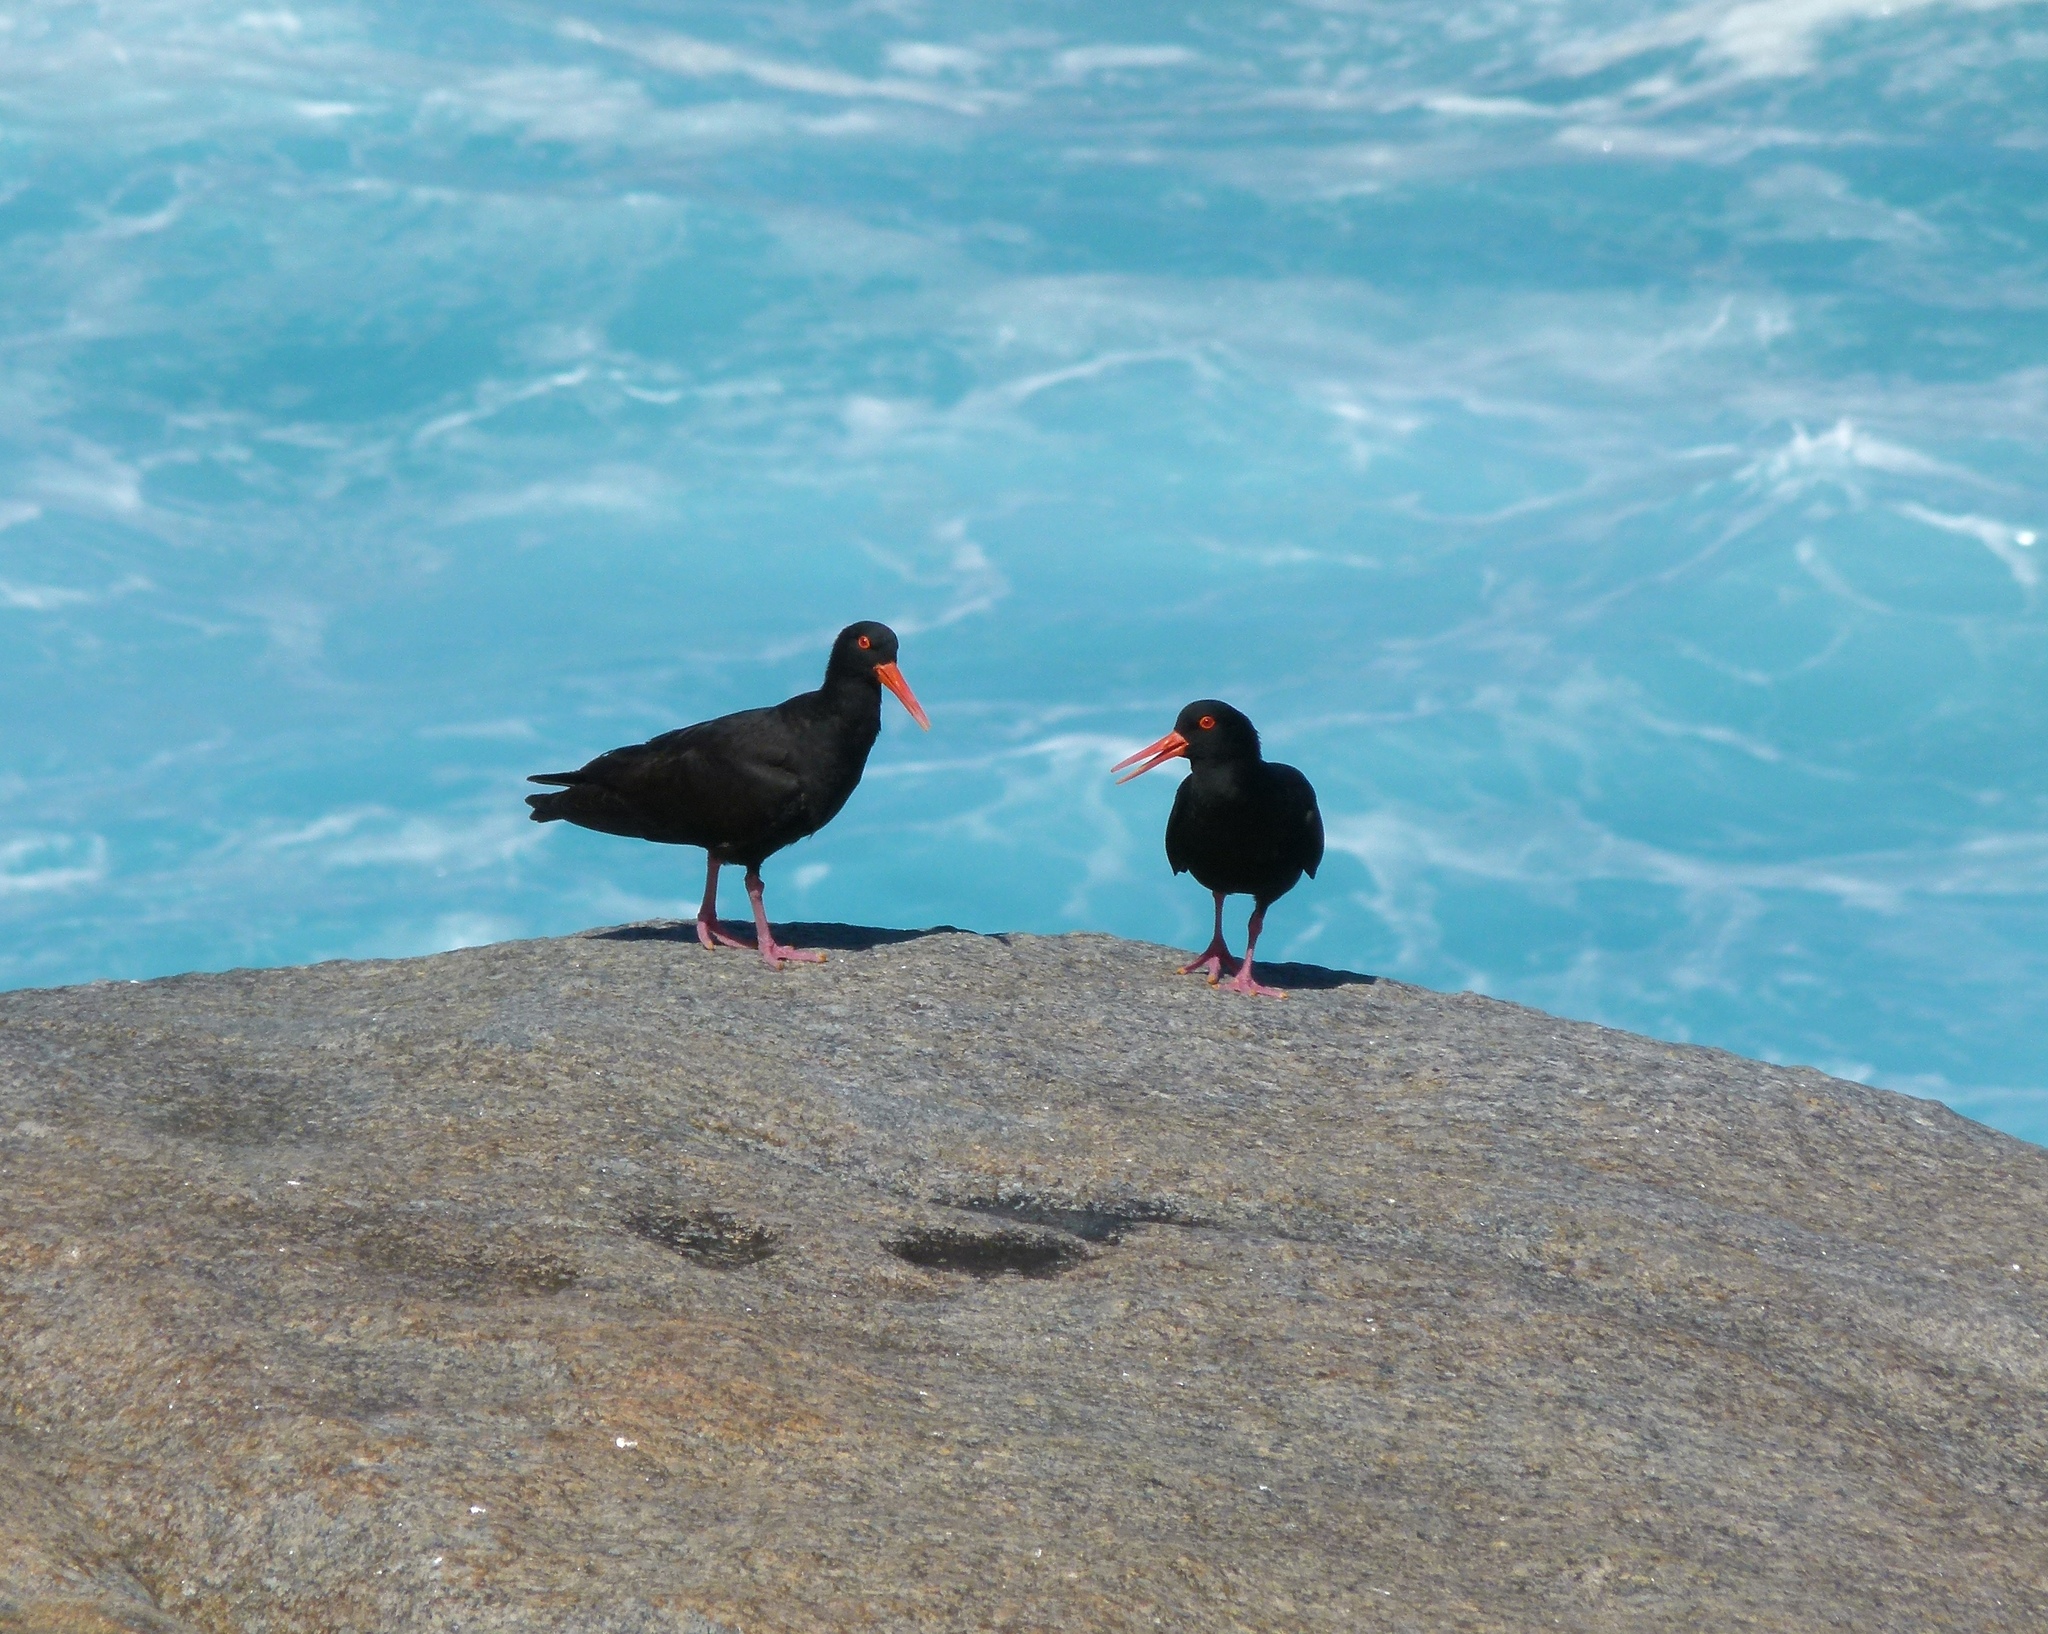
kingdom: Animalia
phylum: Chordata
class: Aves
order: Charadriiformes
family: Haematopodidae
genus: Haematopus
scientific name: Haematopus fuliginosus
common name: Sooty oystercatcher
